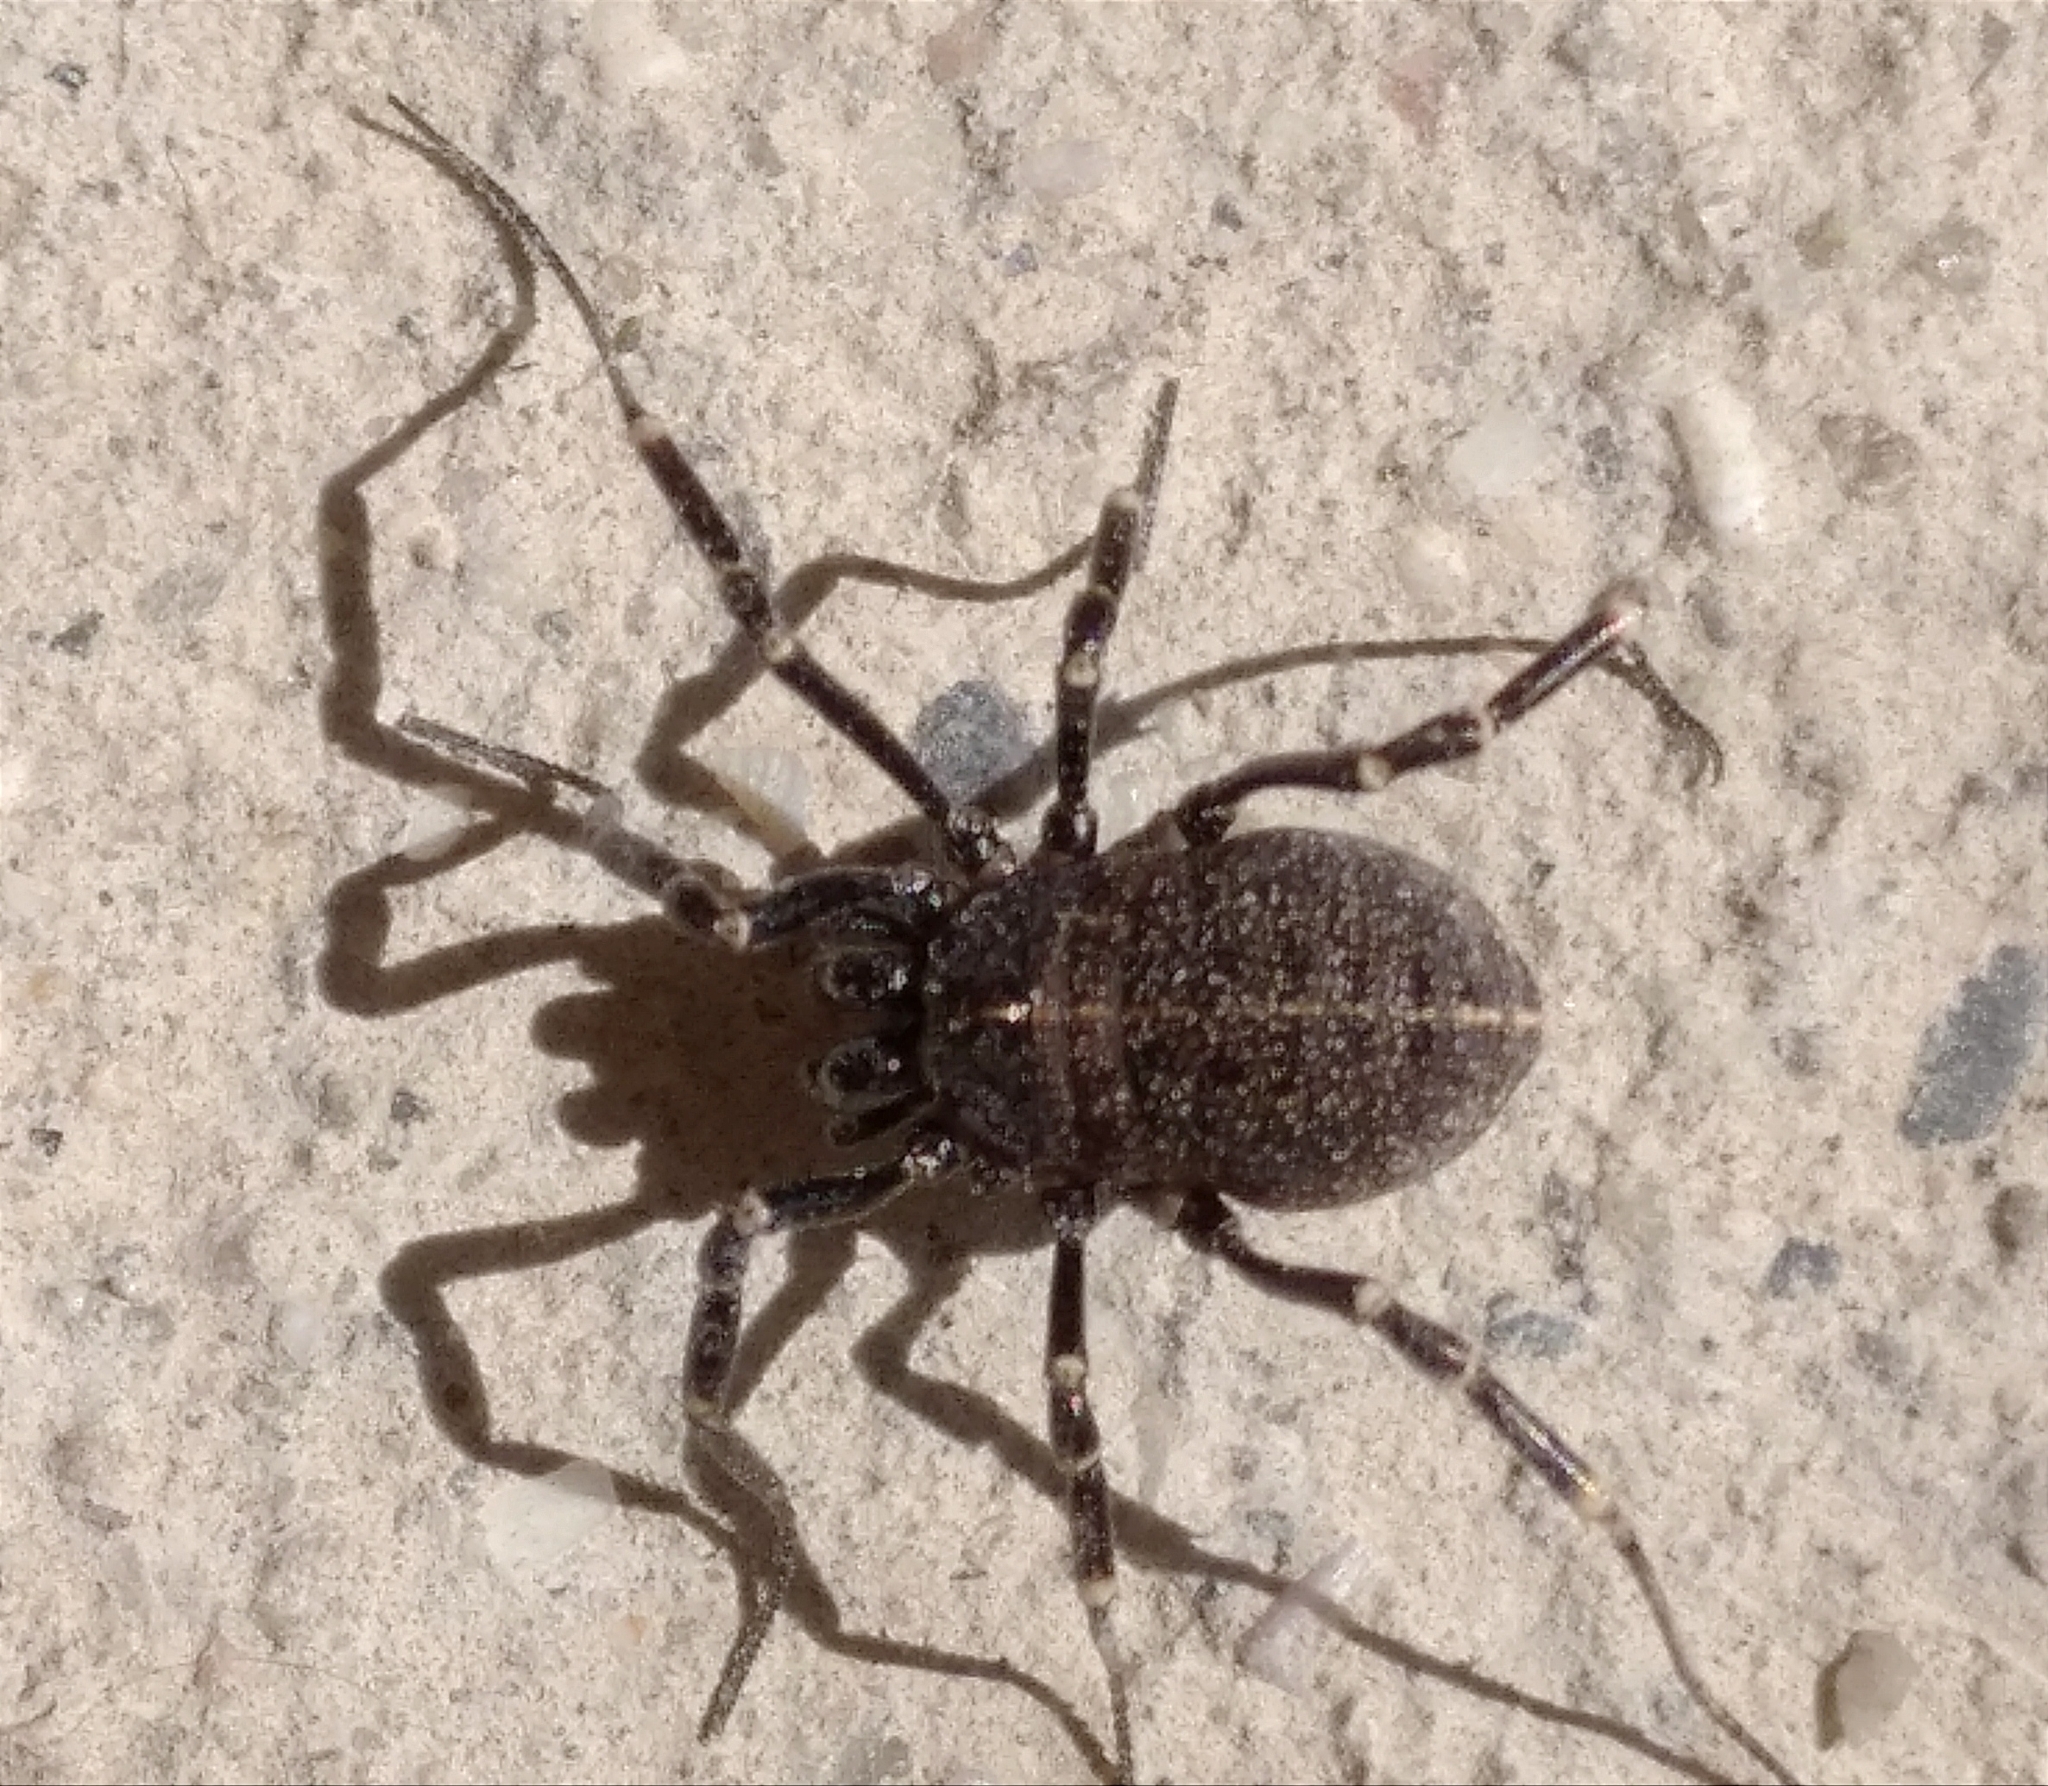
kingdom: Animalia
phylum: Arthropoda
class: Arachnida
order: Opiliones
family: Phalangiidae
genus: Egaenus
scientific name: Egaenus convexus
